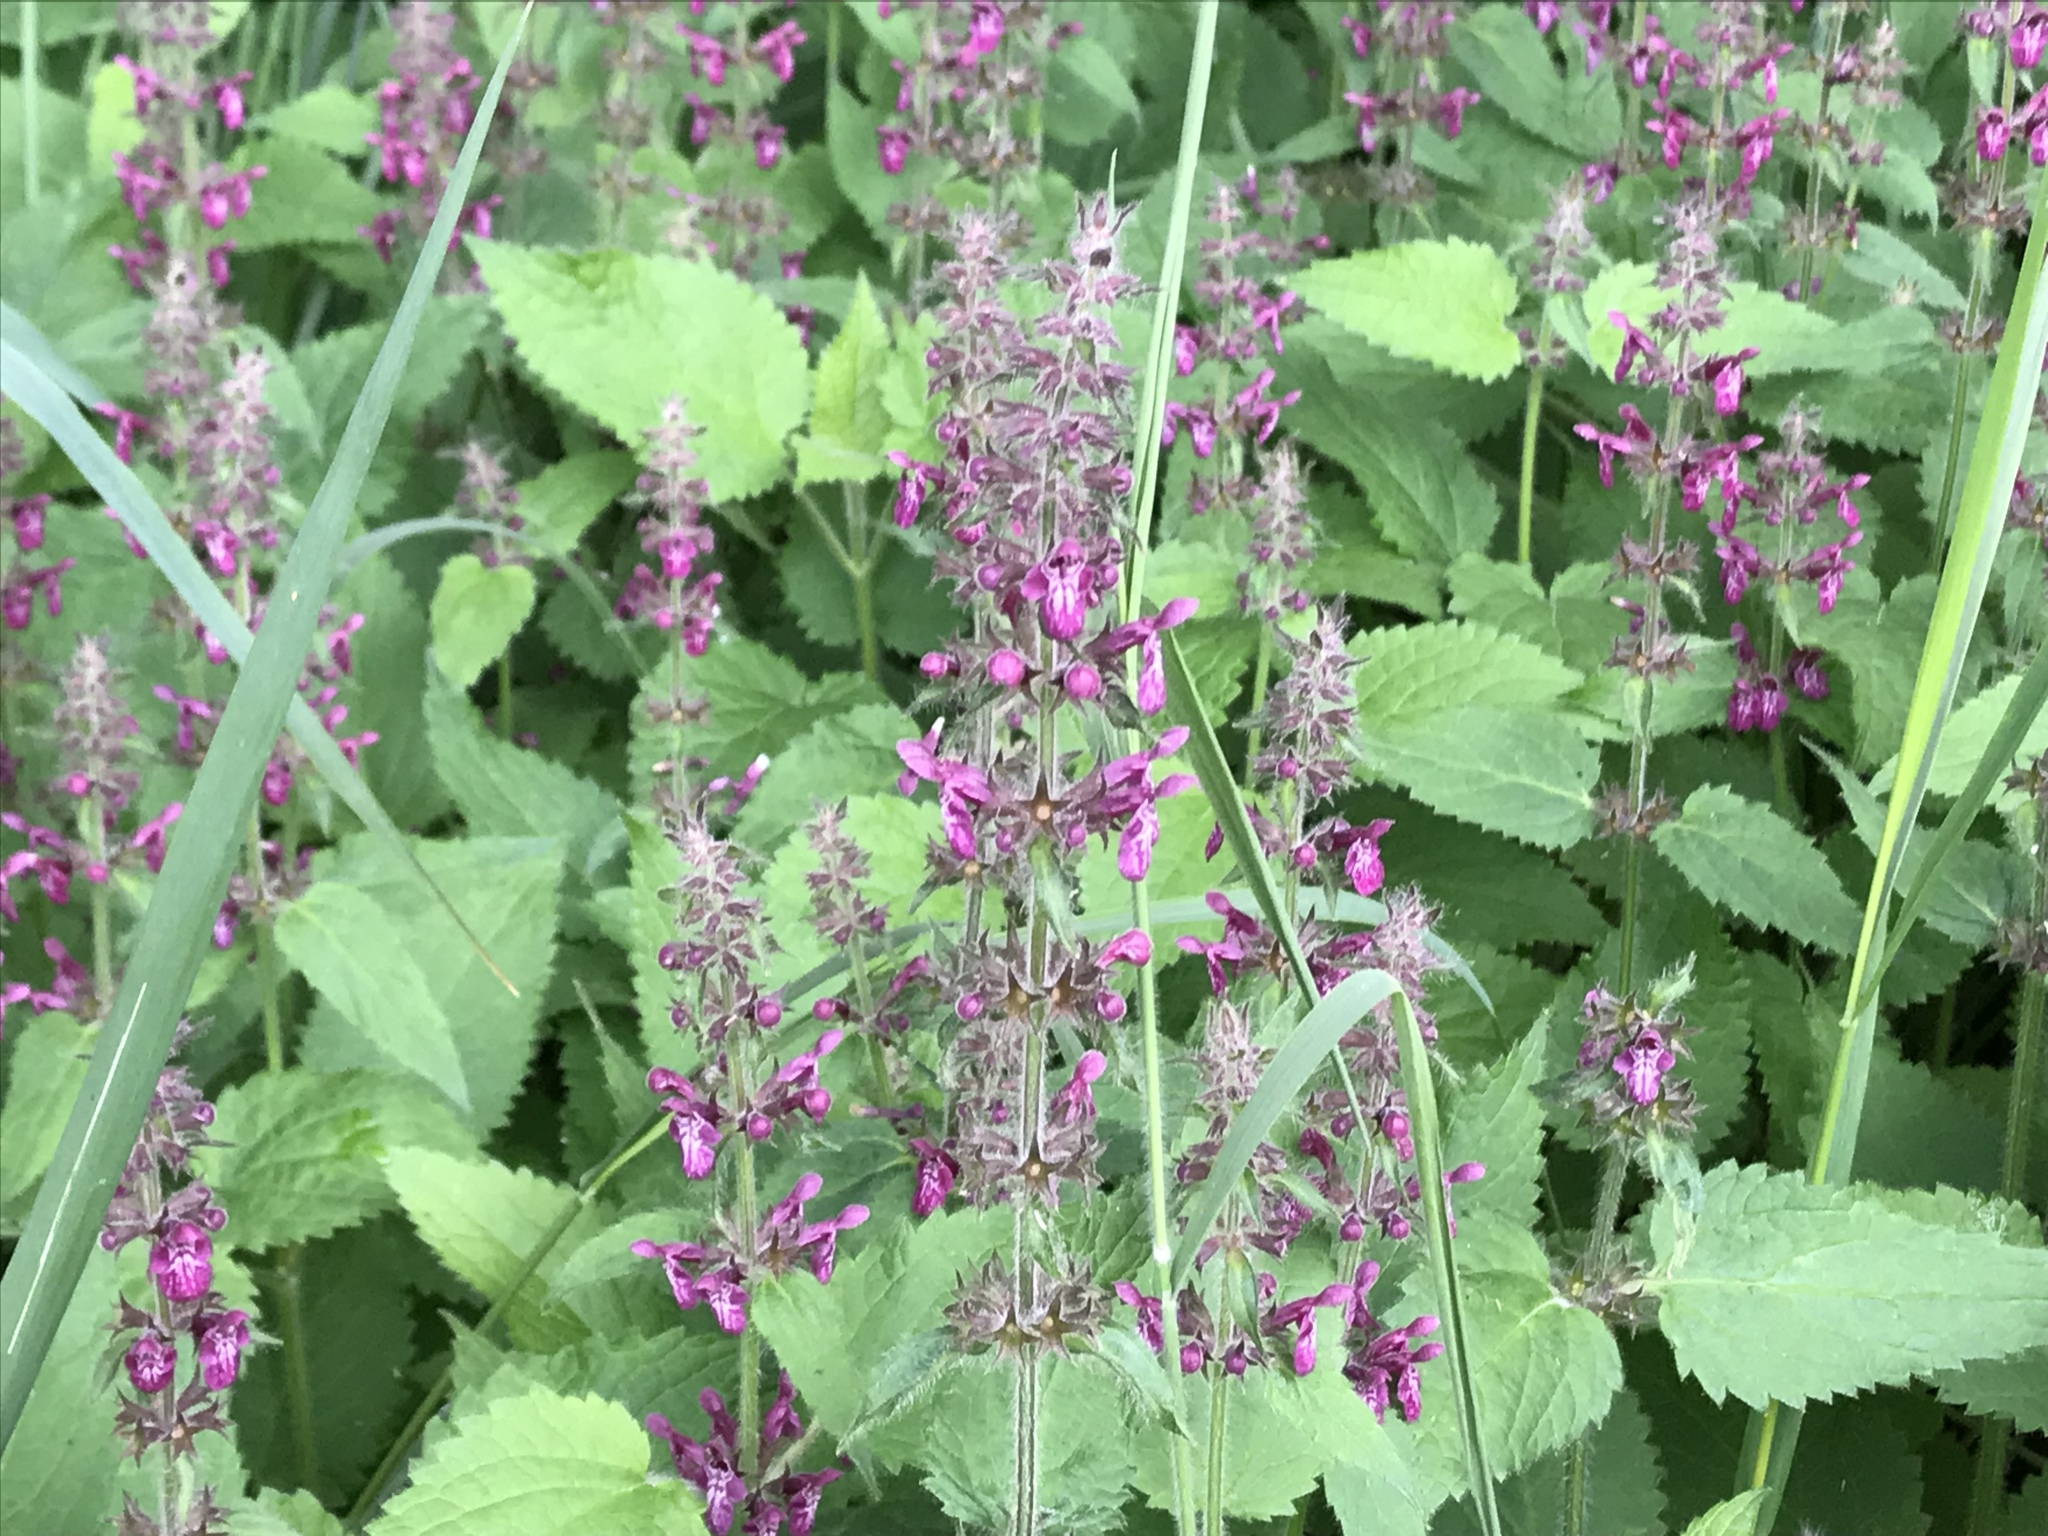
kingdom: Plantae
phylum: Tracheophyta
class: Magnoliopsida
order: Lamiales
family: Lamiaceae
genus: Stachys
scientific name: Stachys sylvatica
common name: Hedge woundwort
